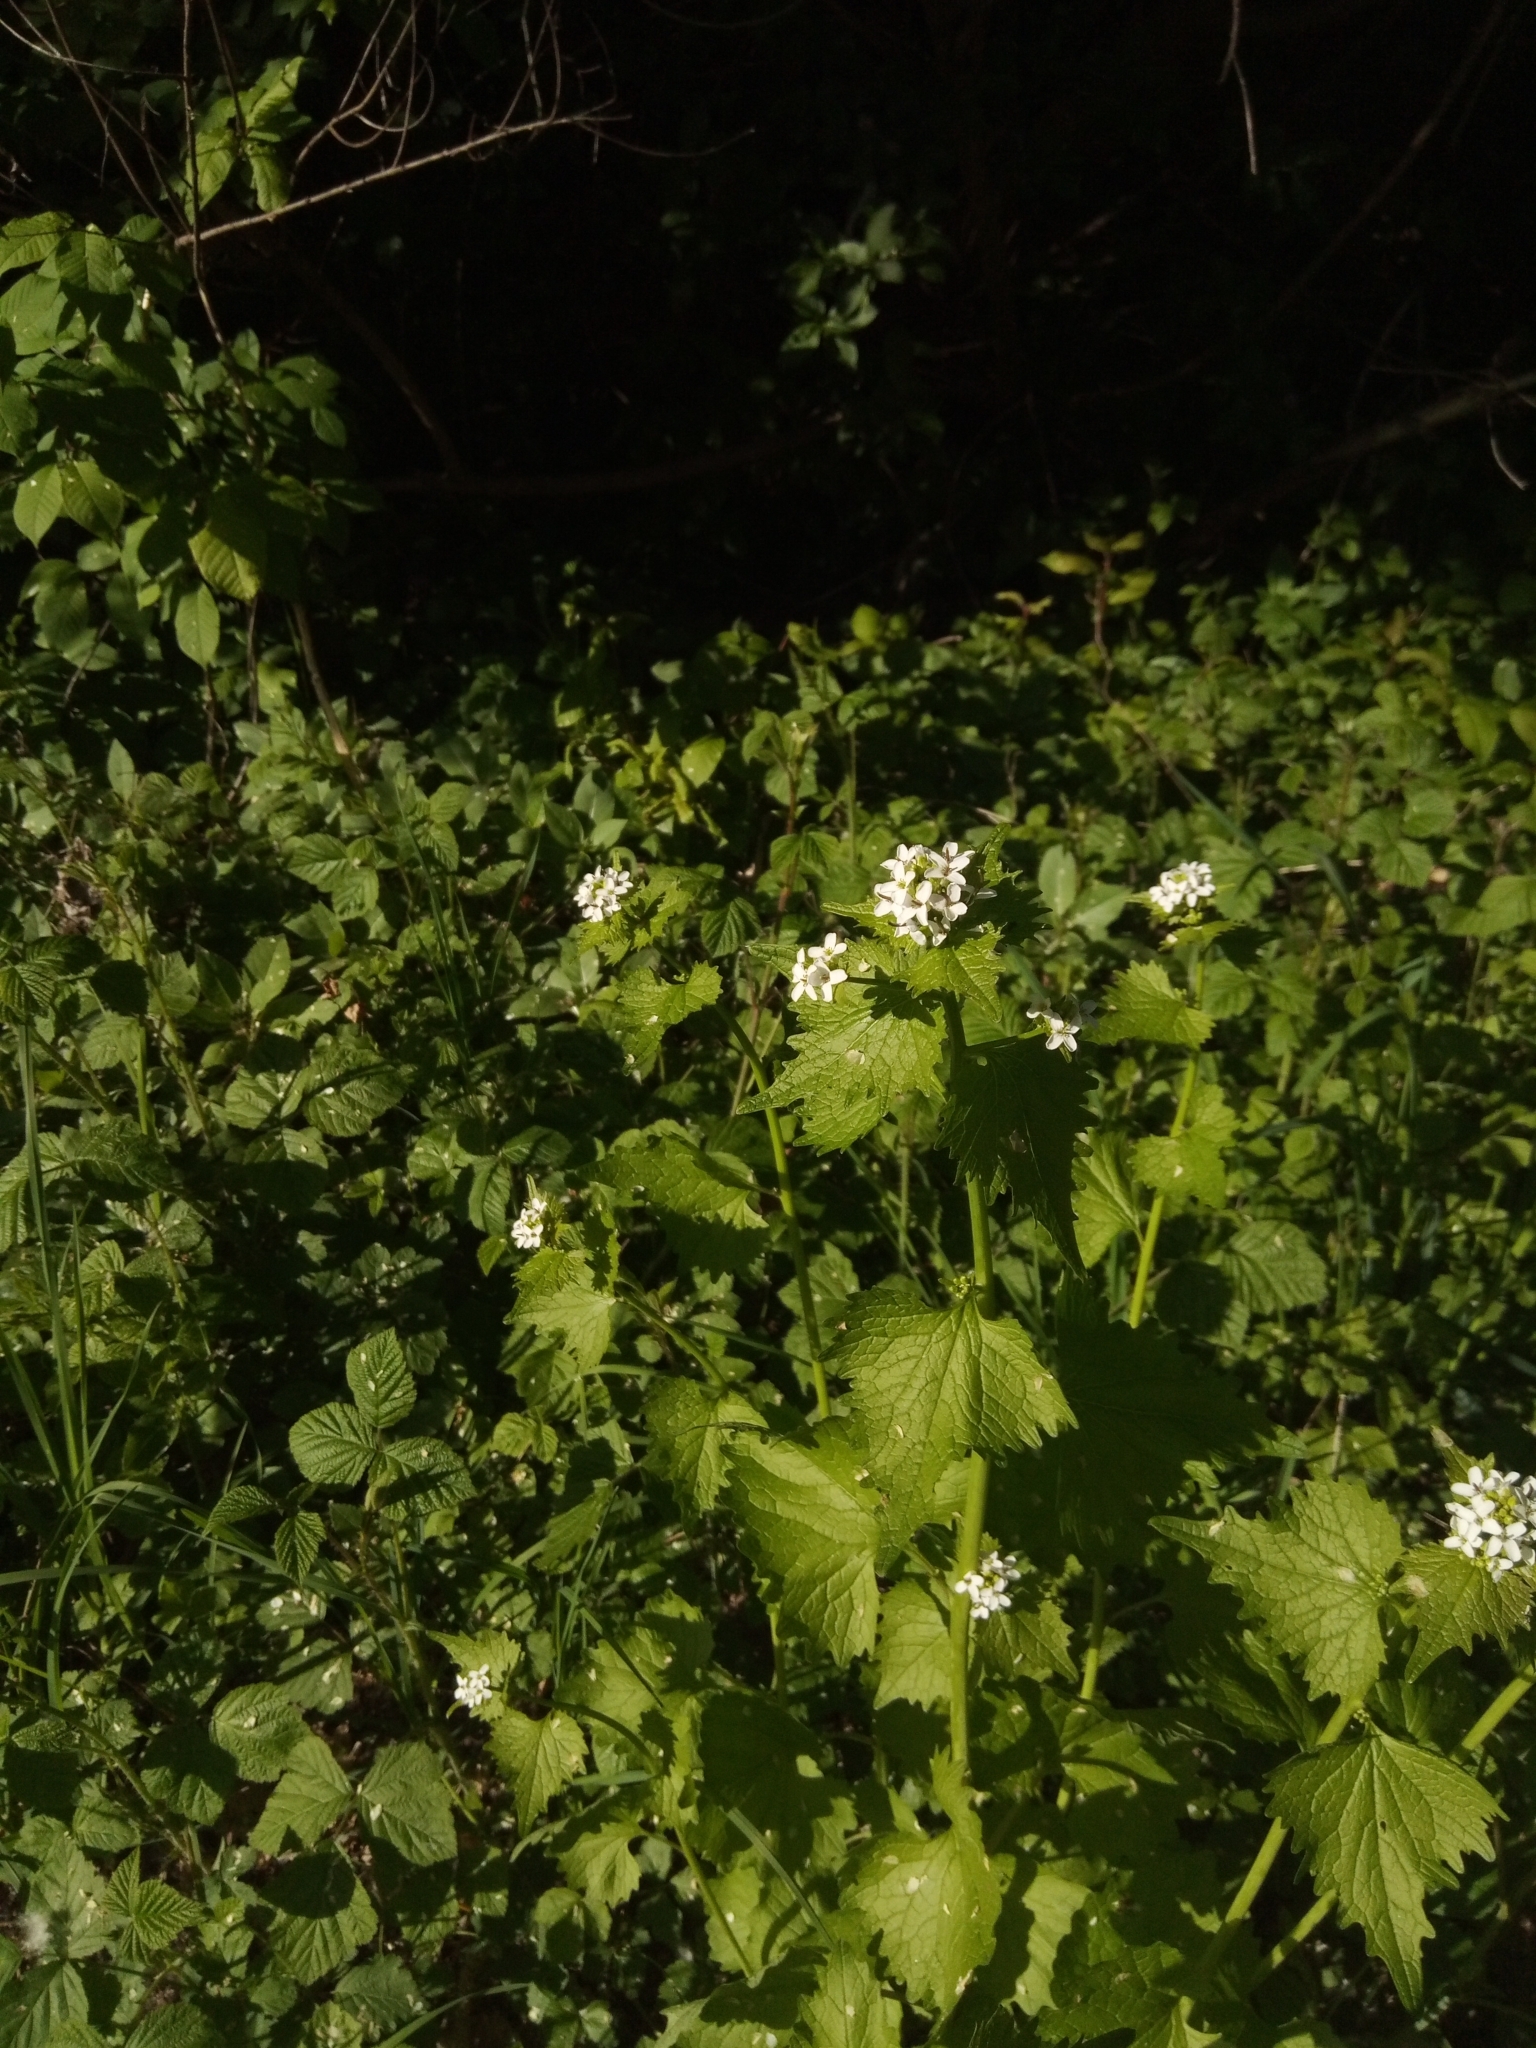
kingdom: Plantae
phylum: Tracheophyta
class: Magnoliopsida
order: Brassicales
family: Brassicaceae
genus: Alliaria
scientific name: Alliaria petiolata
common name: Garlic mustard
